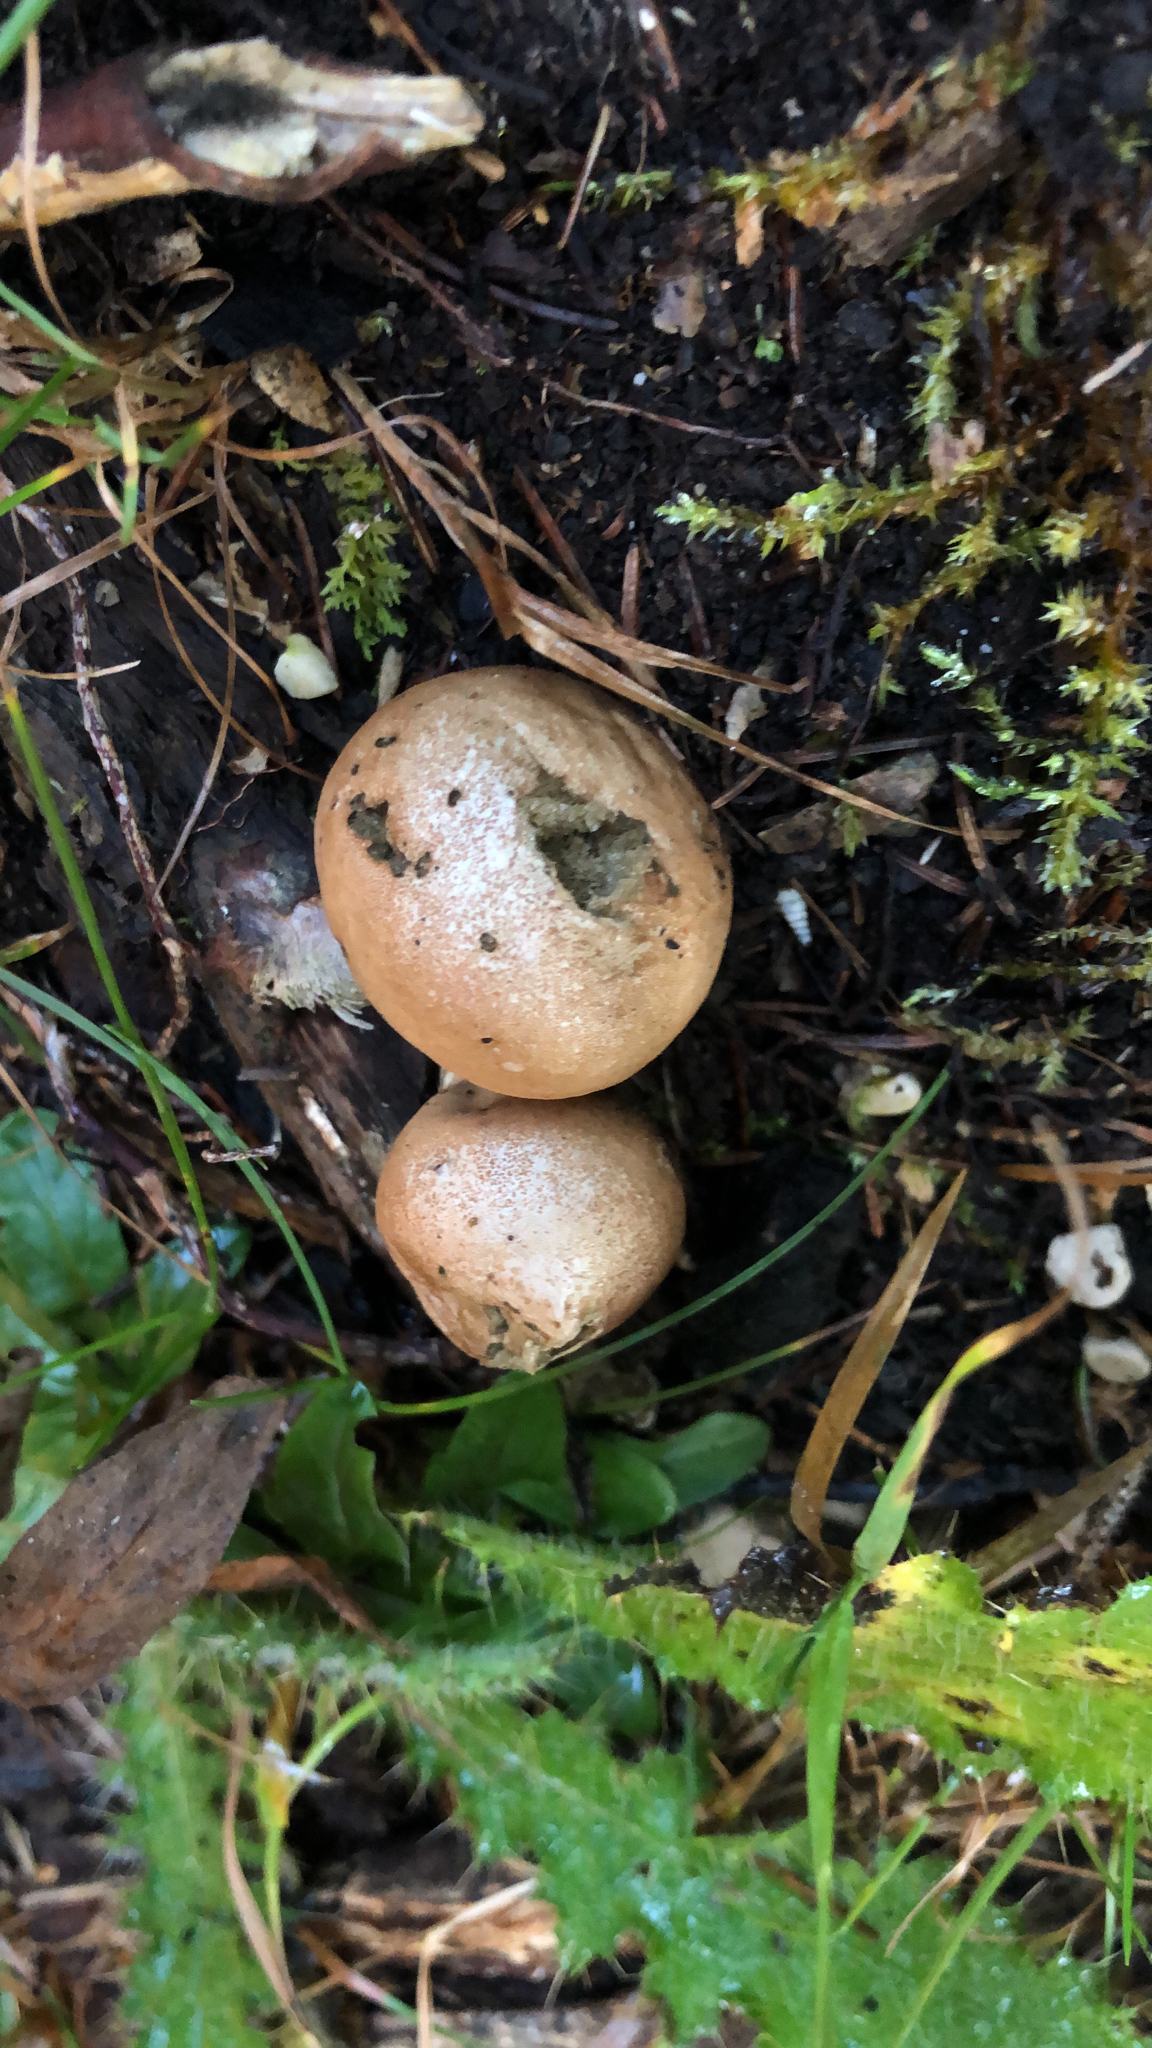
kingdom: Fungi
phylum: Basidiomycota
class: Agaricomycetes
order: Agaricales
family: Lycoperdaceae
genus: Apioperdon
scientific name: Apioperdon pyriforme
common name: Pear-shaped puffball
